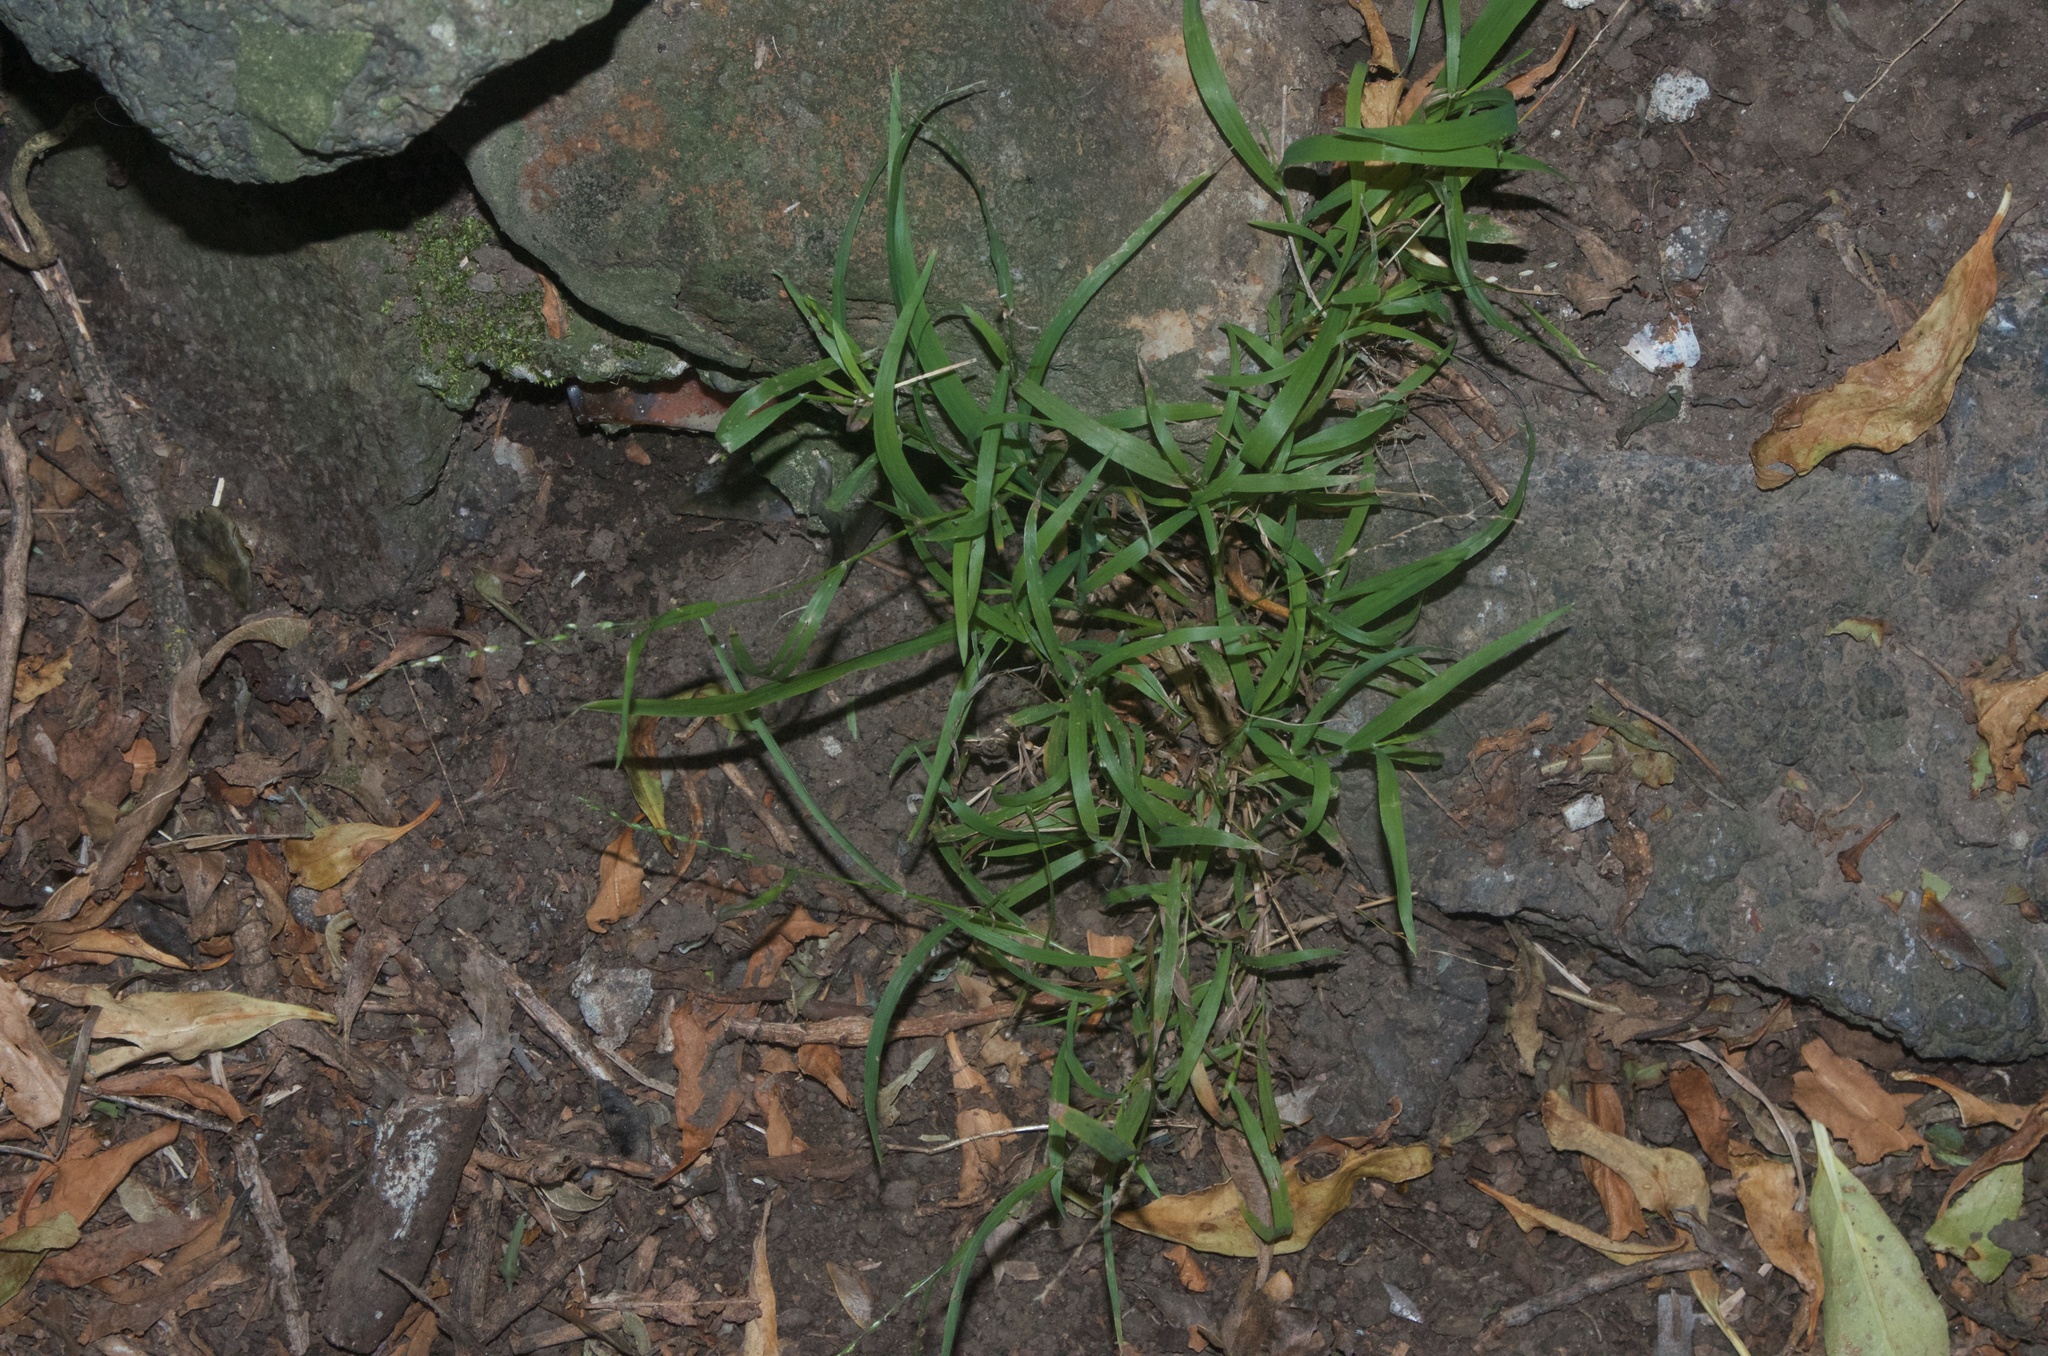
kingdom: Plantae
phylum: Tracheophyta
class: Liliopsida
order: Poales
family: Poaceae
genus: Ehrharta
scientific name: Ehrharta erecta
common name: Panic veldtgrass
